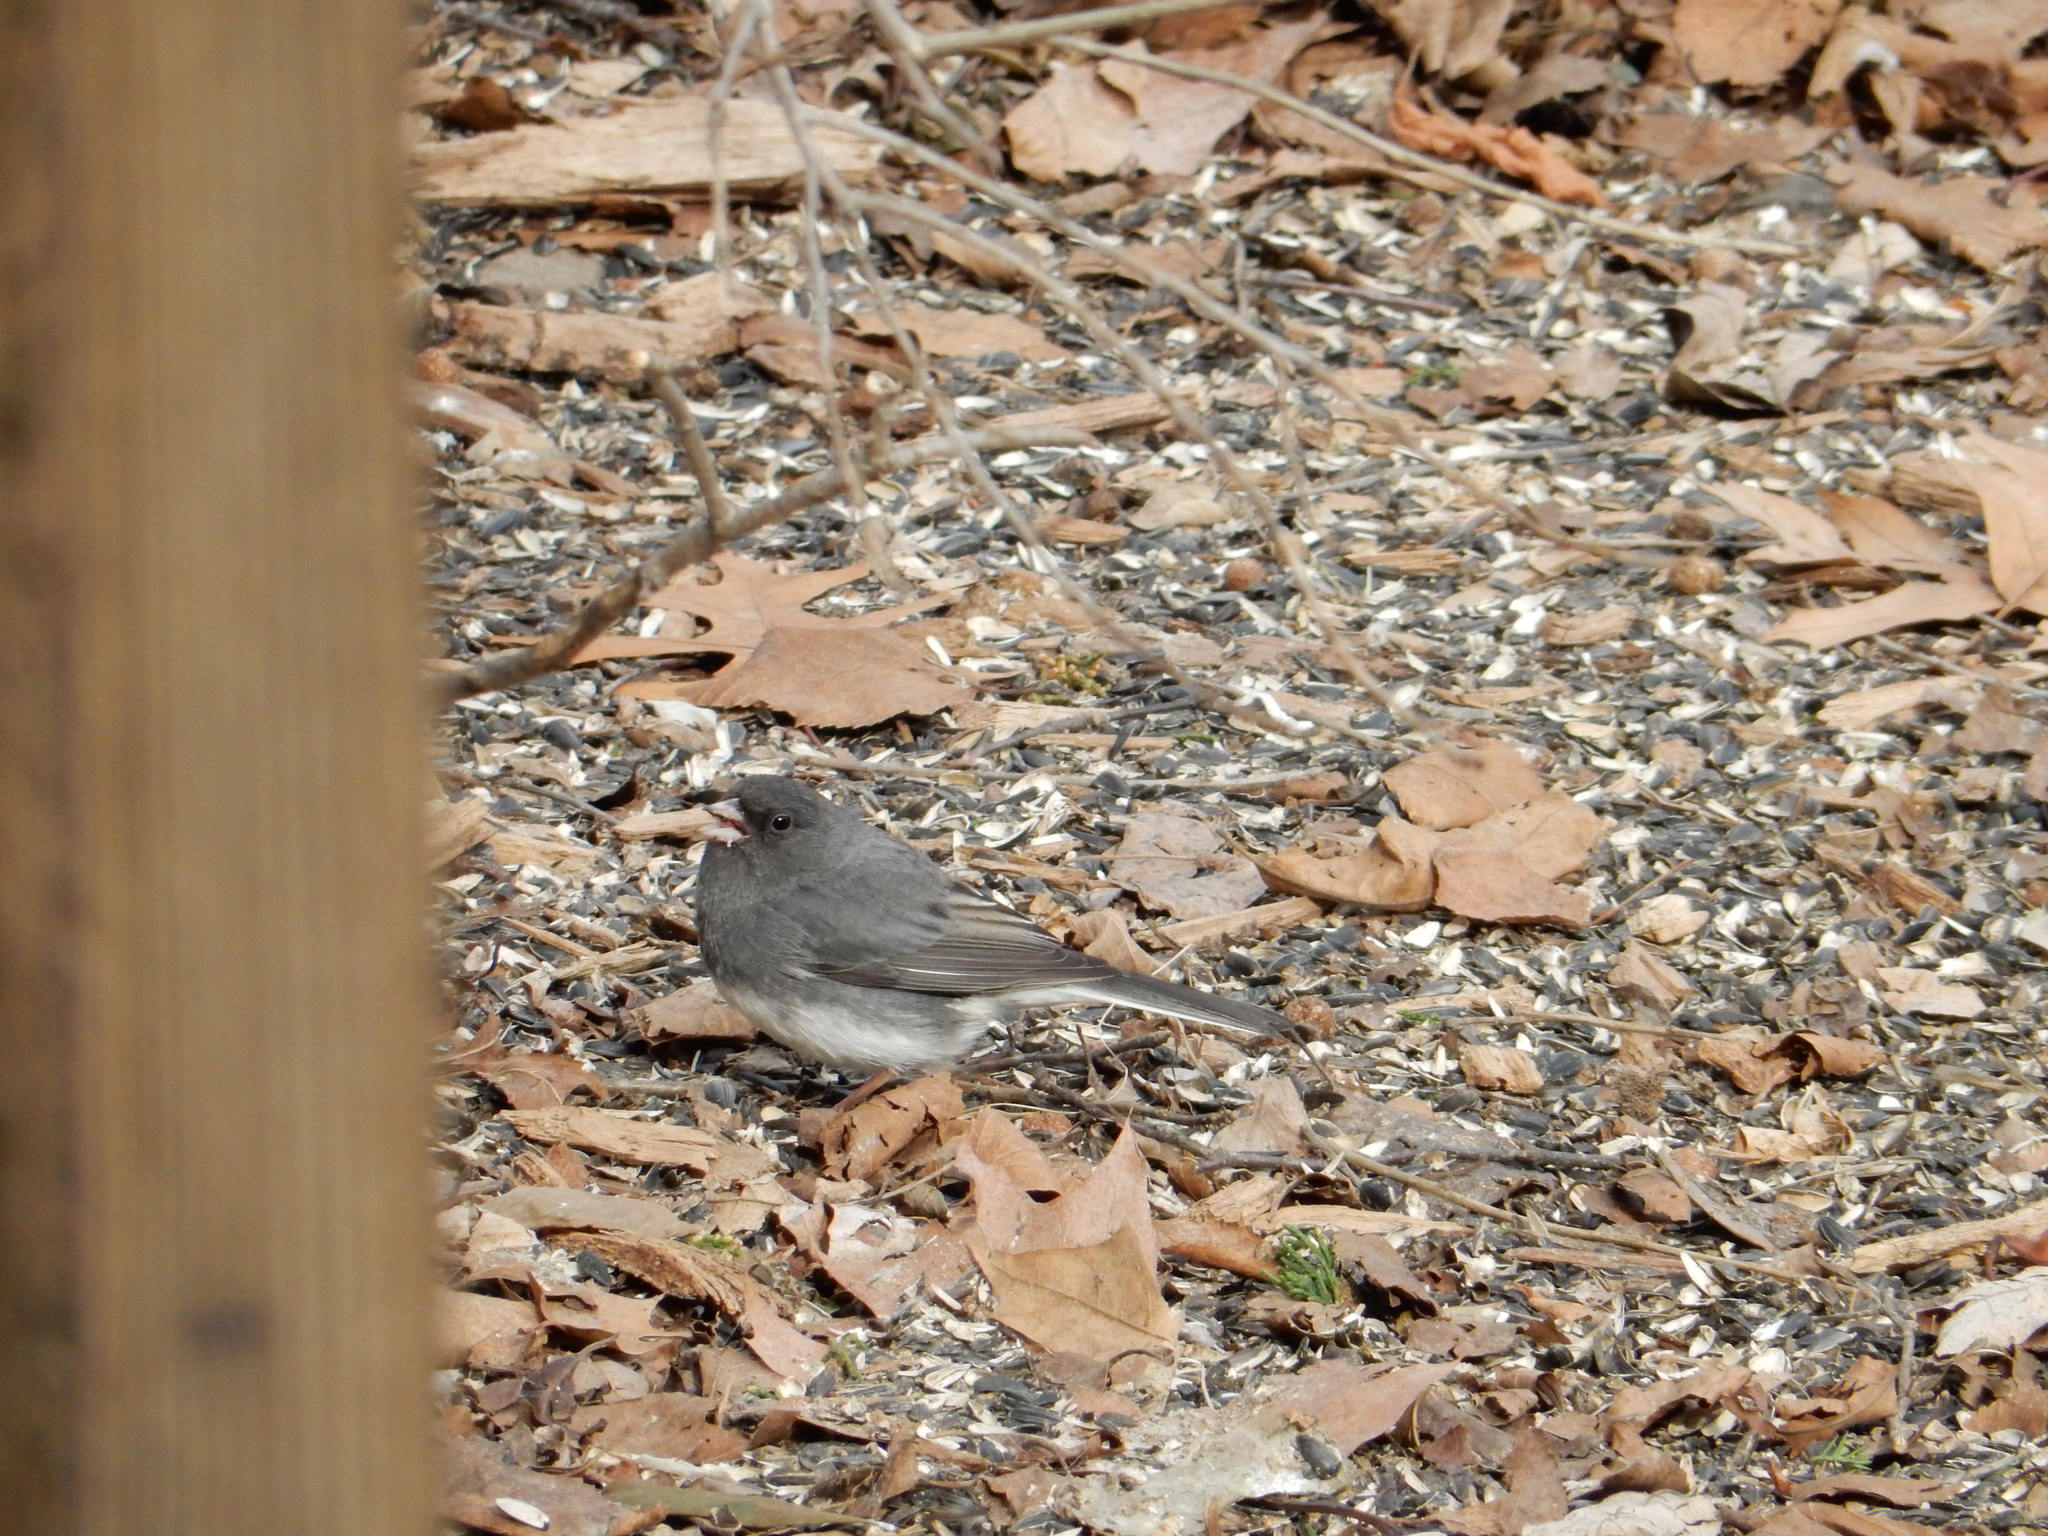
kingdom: Animalia
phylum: Chordata
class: Aves
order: Passeriformes
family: Passerellidae
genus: Junco
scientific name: Junco hyemalis
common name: Dark-eyed junco
